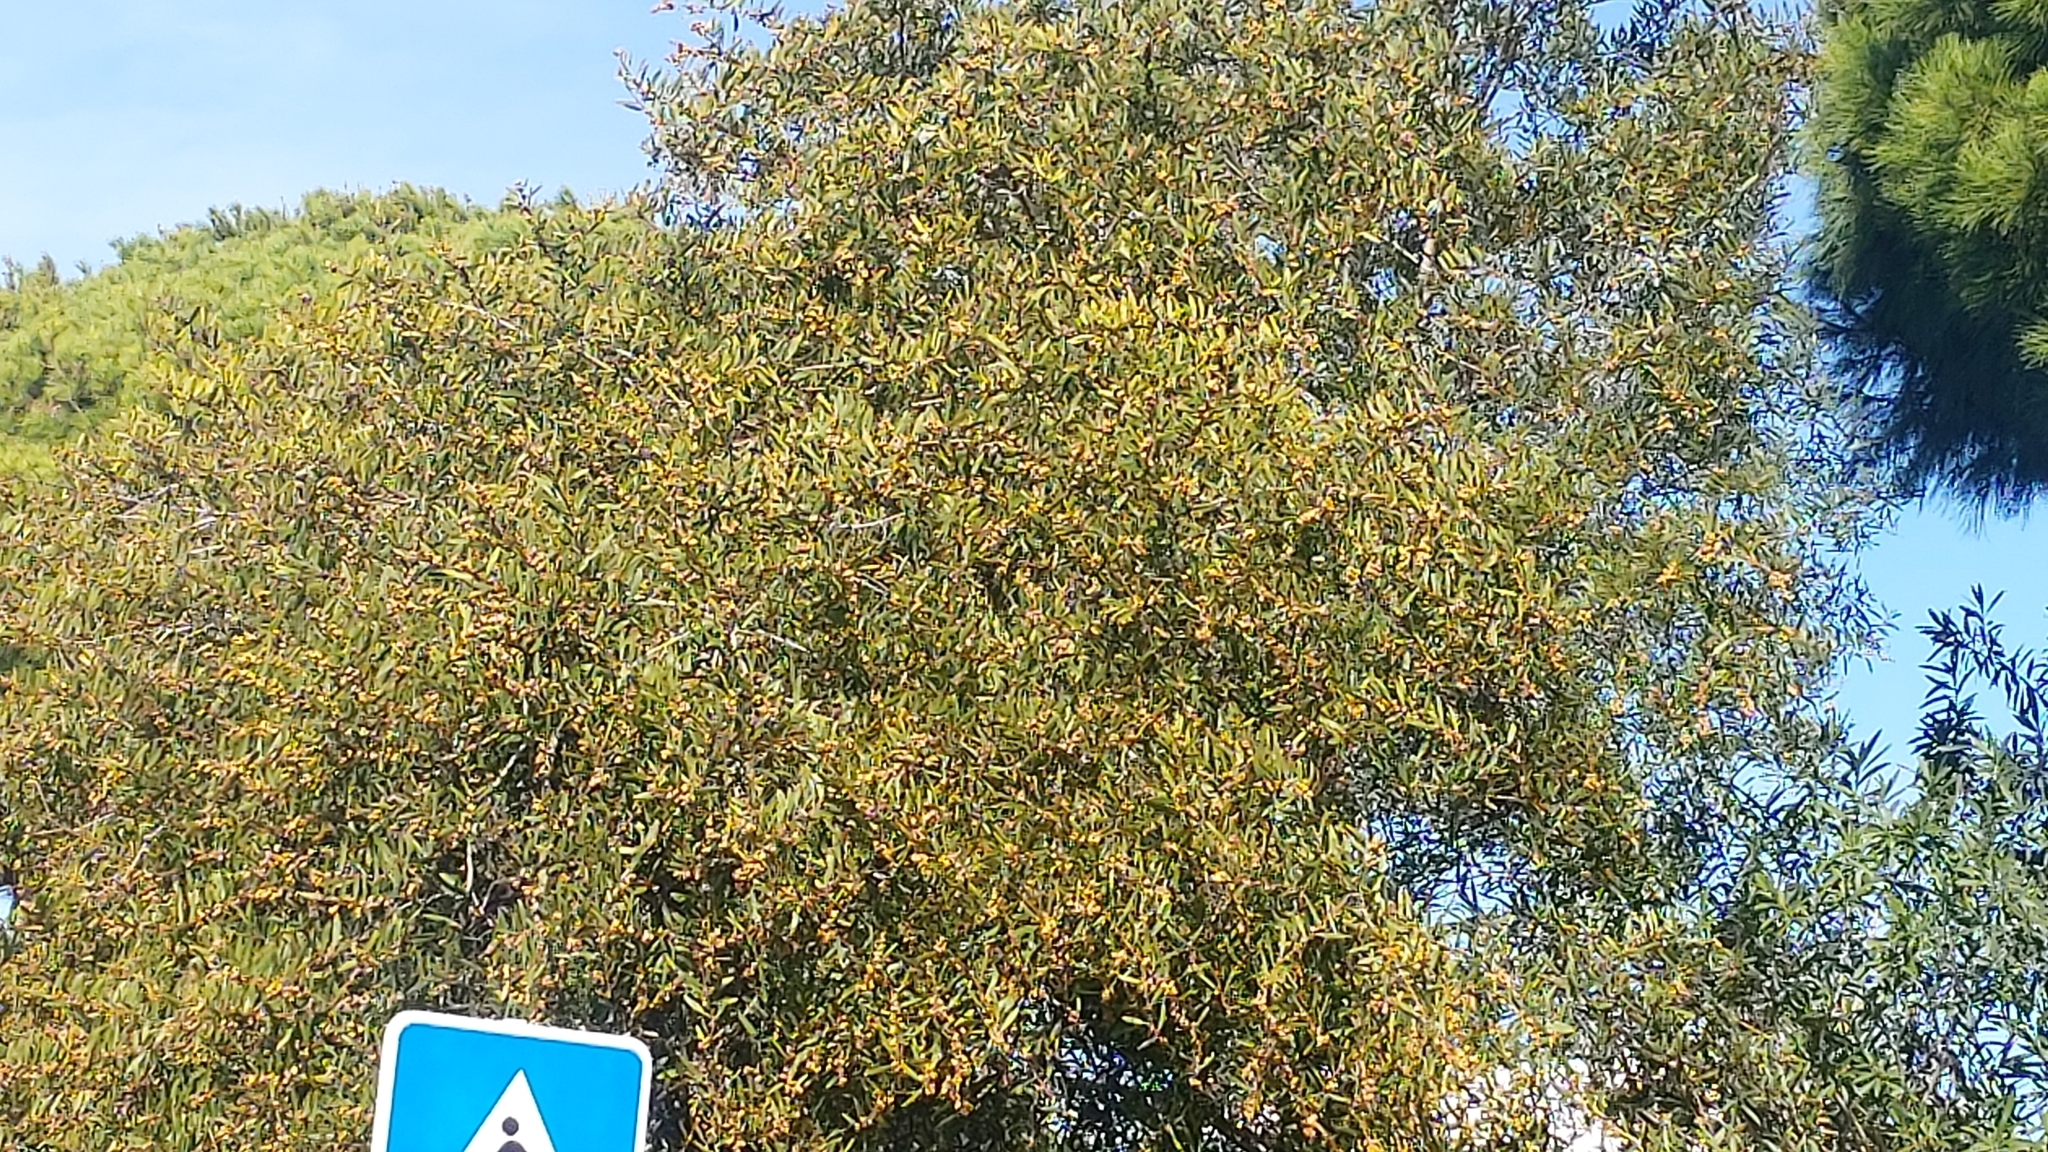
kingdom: Plantae
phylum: Tracheophyta
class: Magnoliopsida
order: Fabales
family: Fabaceae
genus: Acacia
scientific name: Acacia longifolia
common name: Sydney golden wattle
